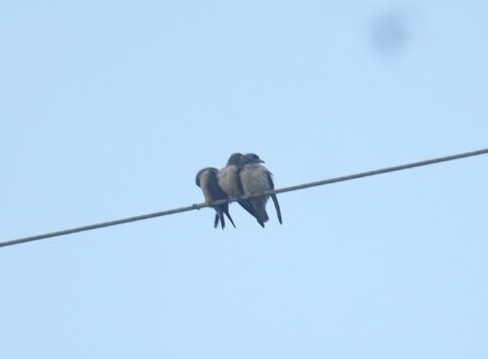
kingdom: Animalia
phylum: Chordata
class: Aves
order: Passeriformes
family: Artamidae
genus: Artamus
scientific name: Artamus fuscus
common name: Ashy woodswallow
